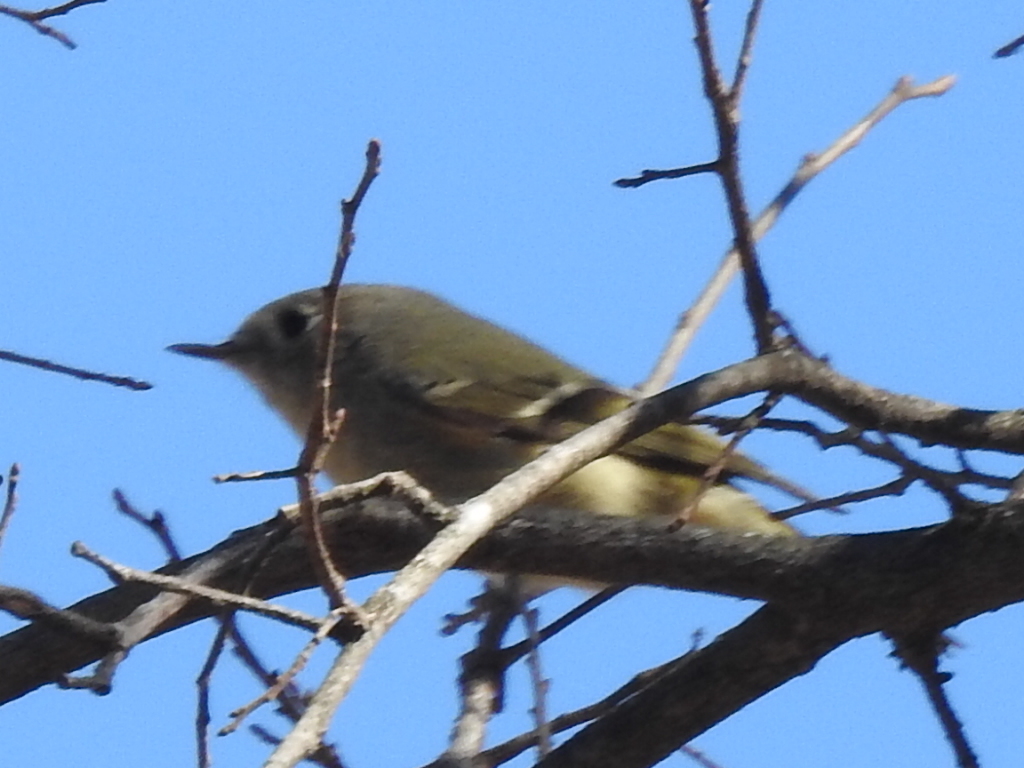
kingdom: Animalia
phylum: Chordata
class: Aves
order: Passeriformes
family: Regulidae
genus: Regulus
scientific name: Regulus calendula
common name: Ruby-crowned kinglet
